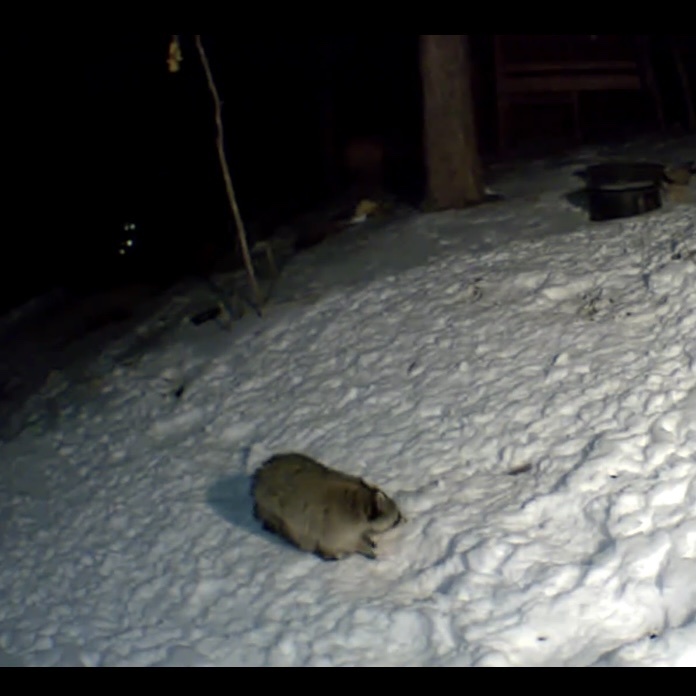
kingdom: Animalia
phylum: Chordata
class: Mammalia
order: Carnivora
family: Procyonidae
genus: Procyon
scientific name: Procyon lotor
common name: Raccoon
